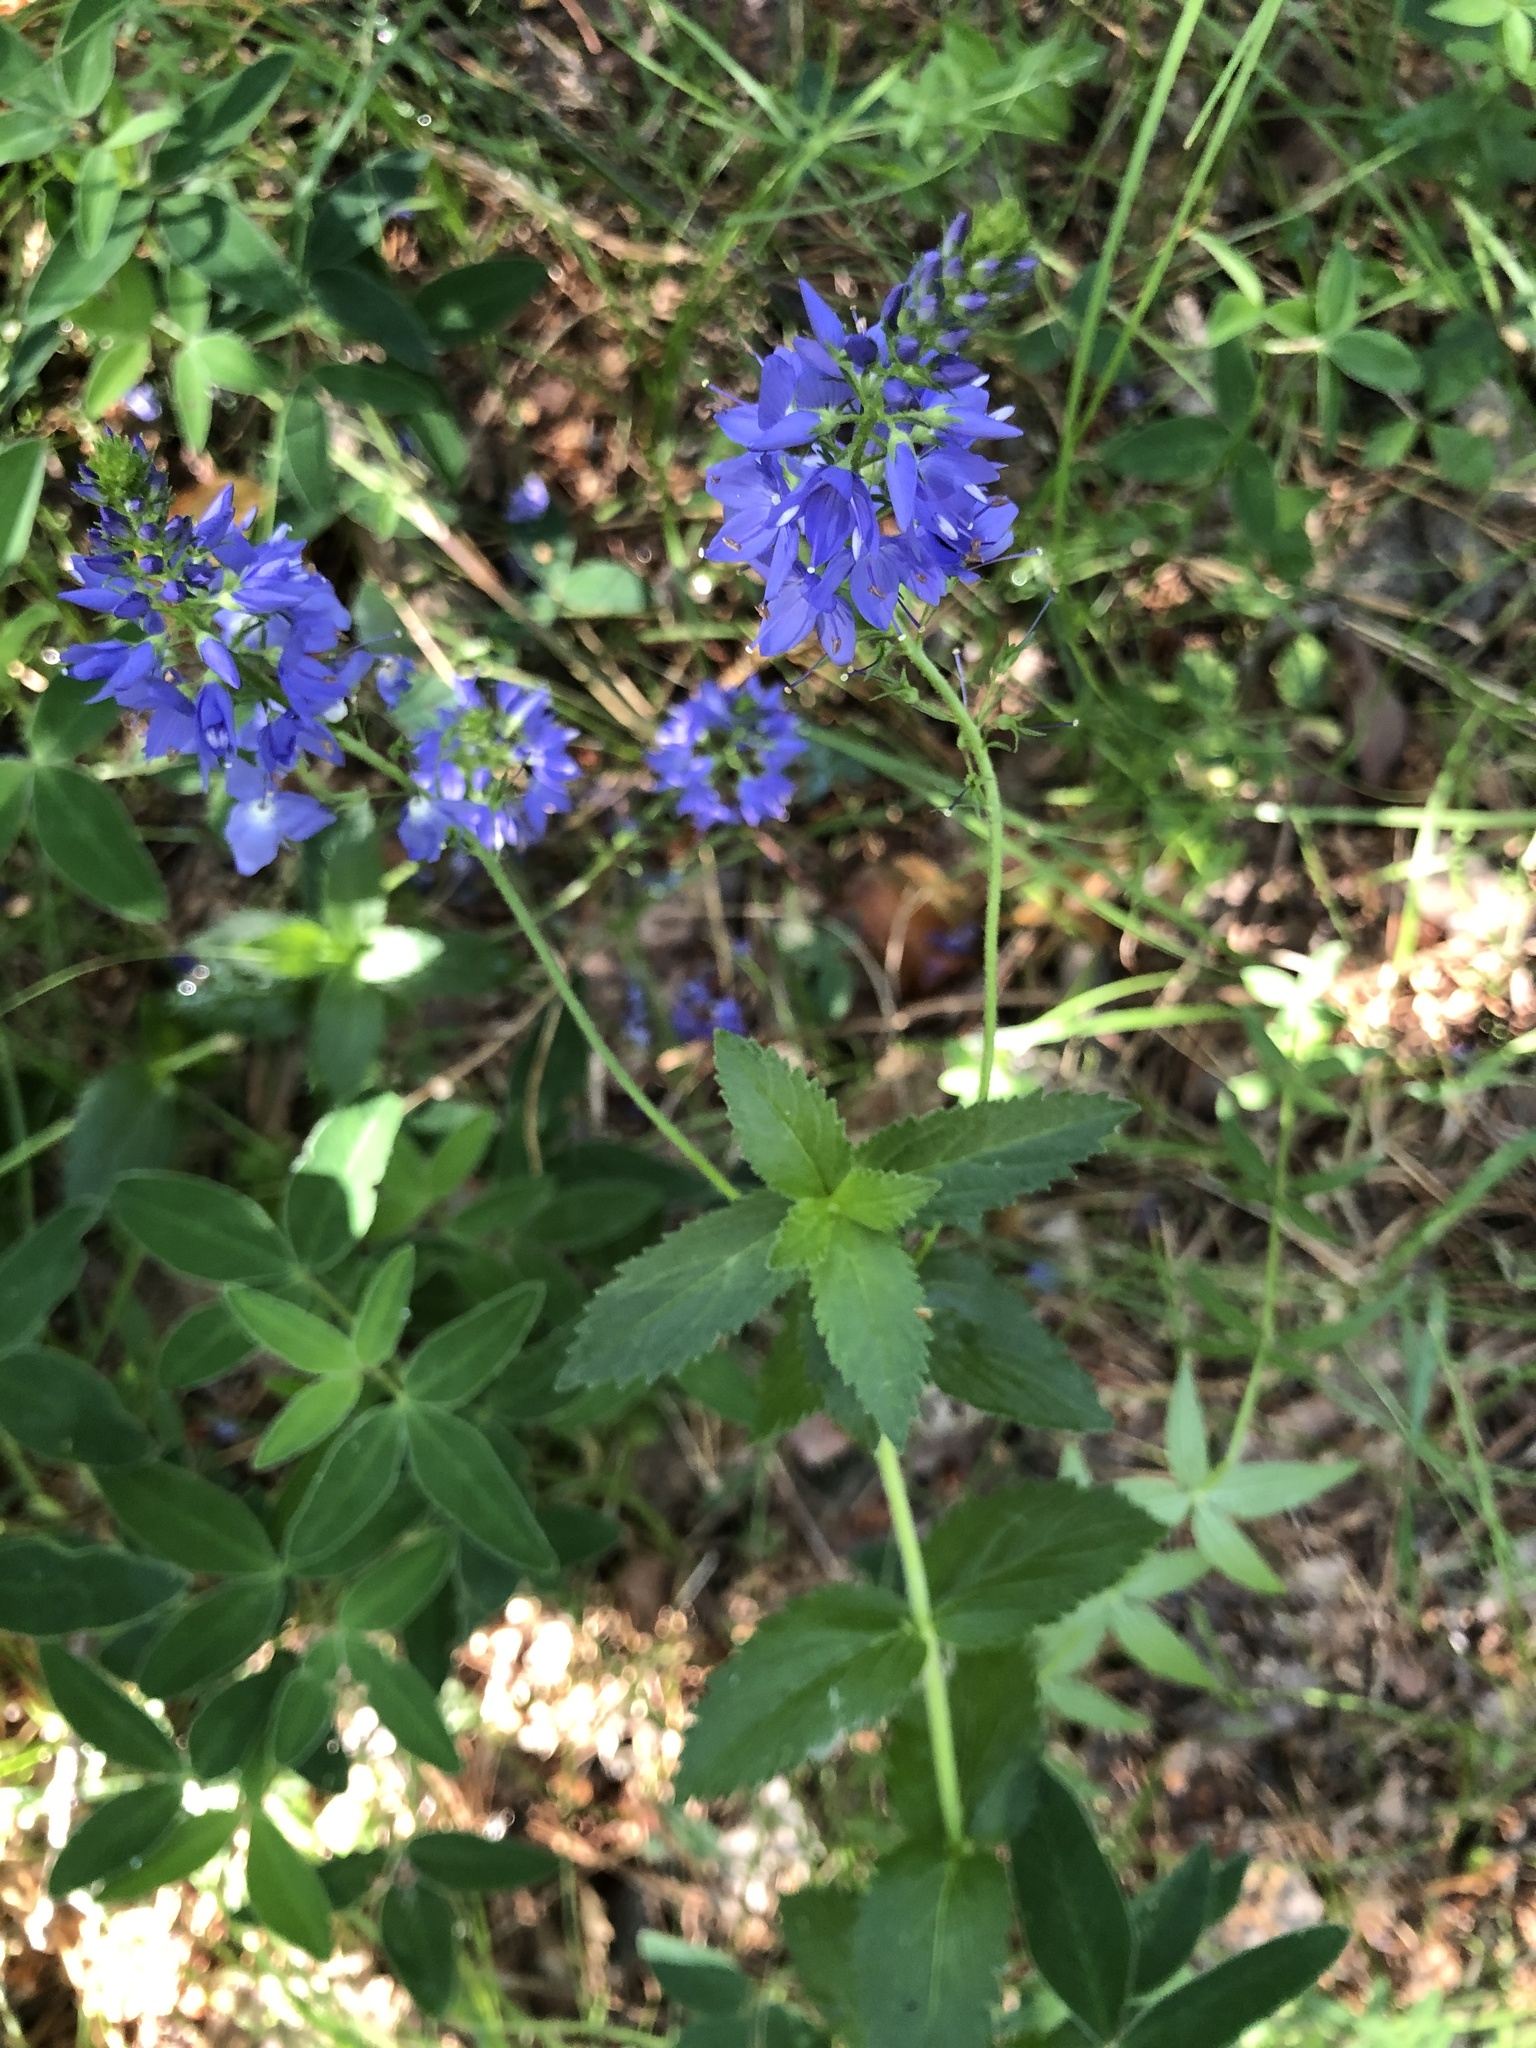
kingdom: Plantae
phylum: Tracheophyta
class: Magnoliopsida
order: Lamiales
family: Plantaginaceae
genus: Veronica
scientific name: Veronica teucrium
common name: Large speedwell
